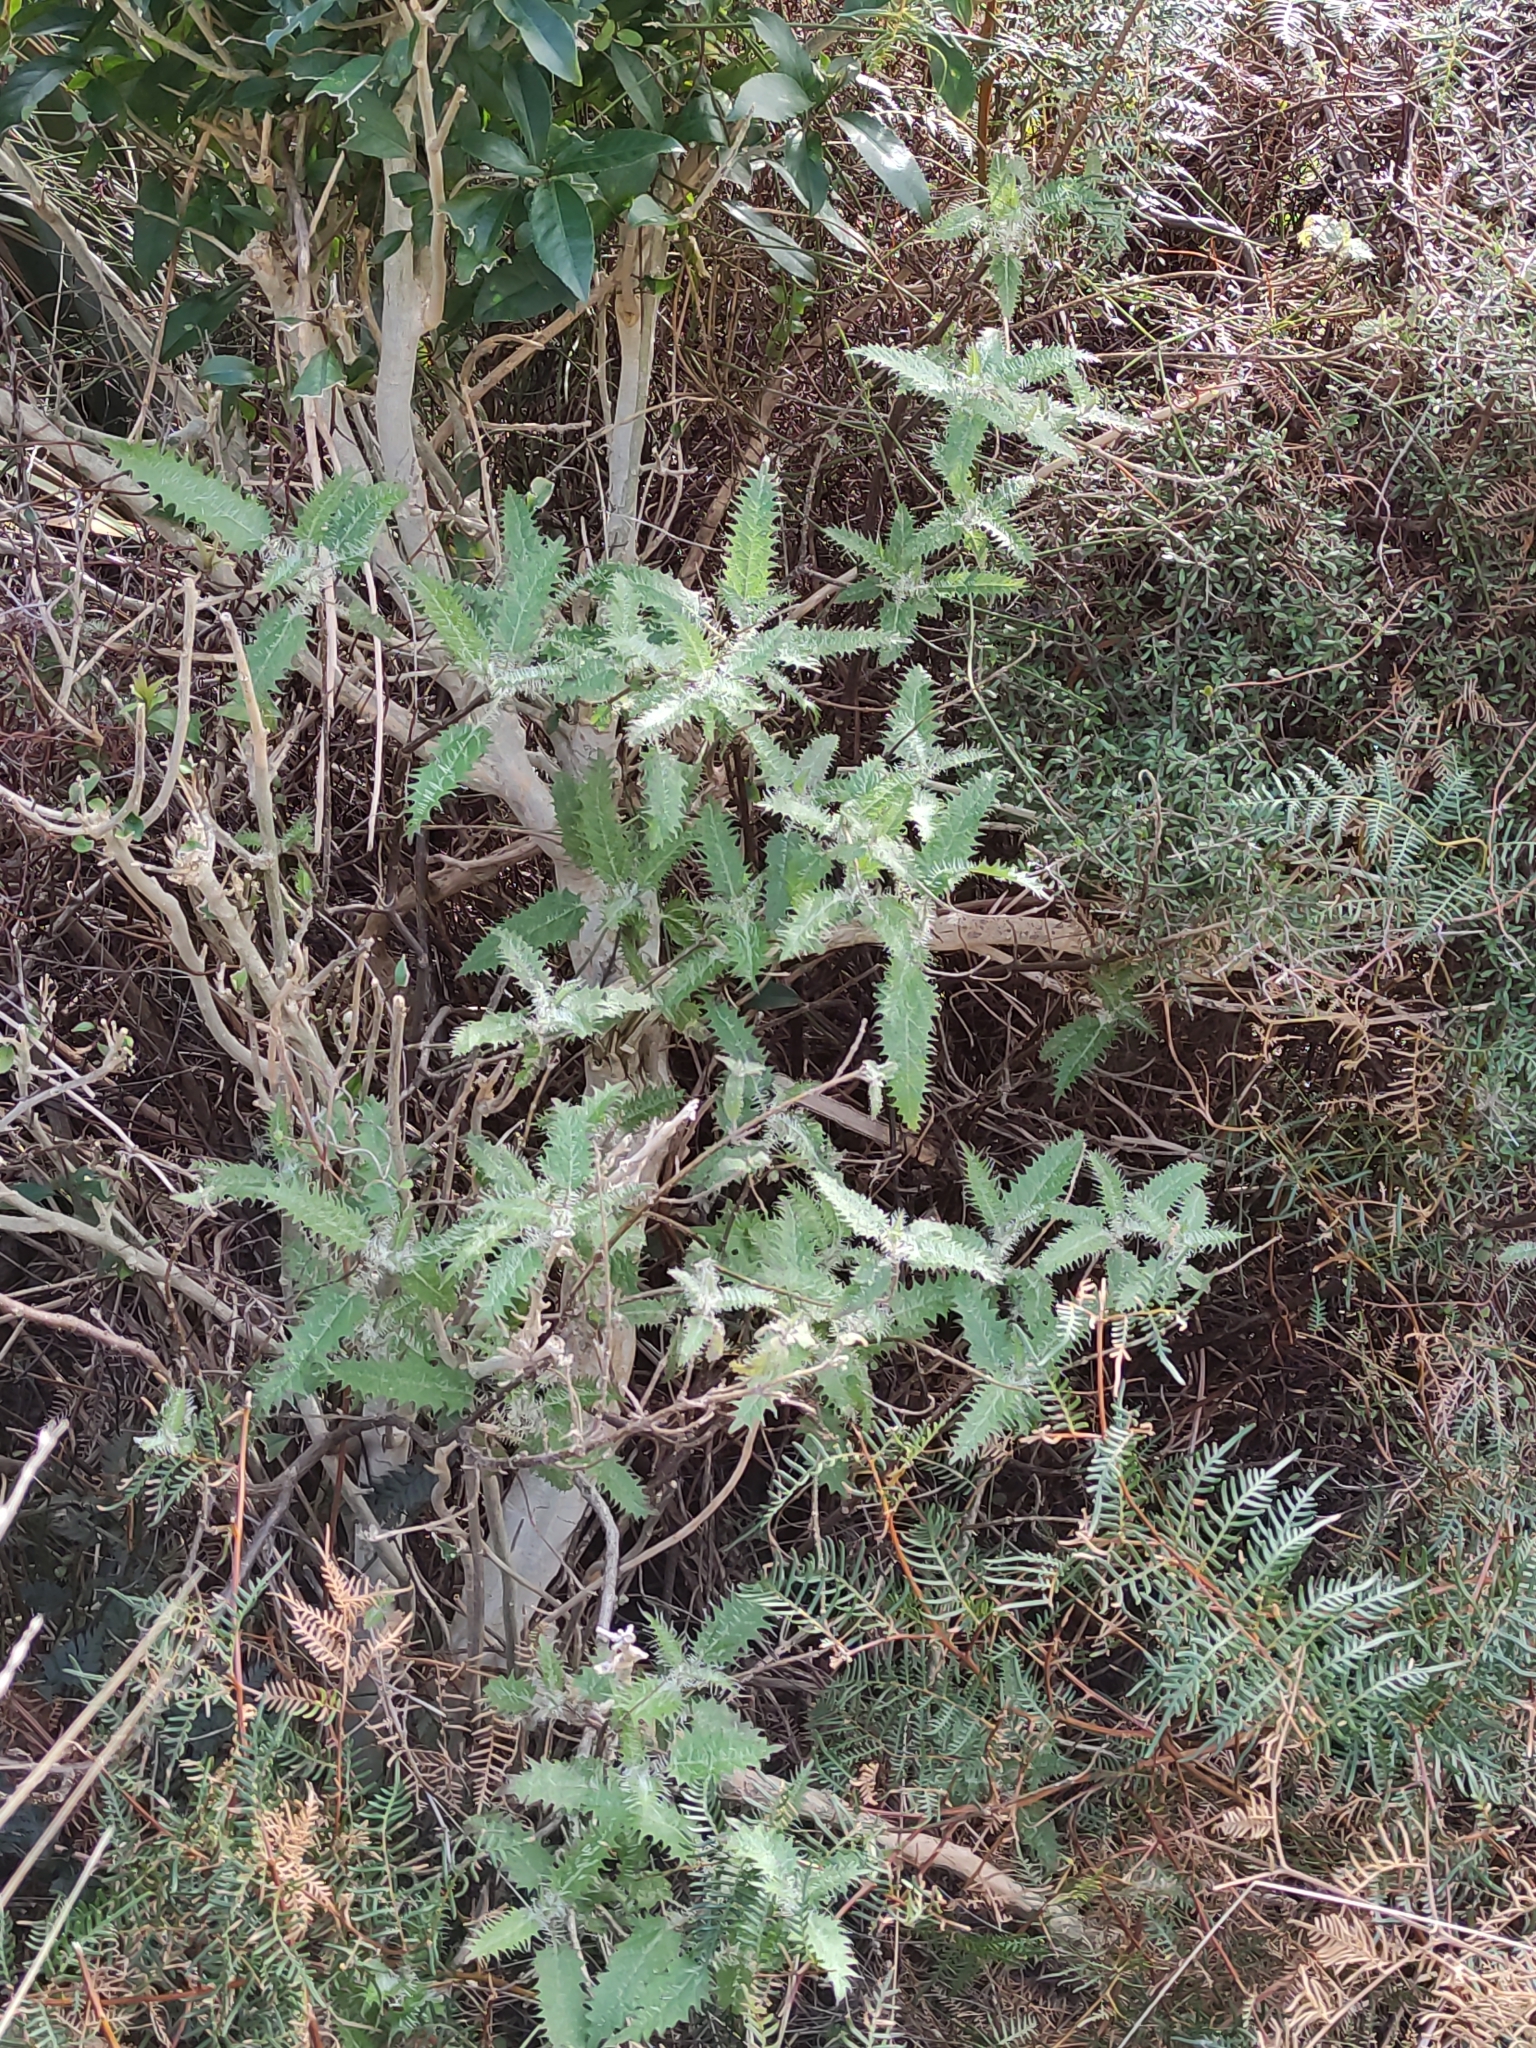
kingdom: Plantae
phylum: Tracheophyta
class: Magnoliopsida
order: Rosales
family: Urticaceae
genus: Urtica
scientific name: Urtica ferox
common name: Tree nettle
